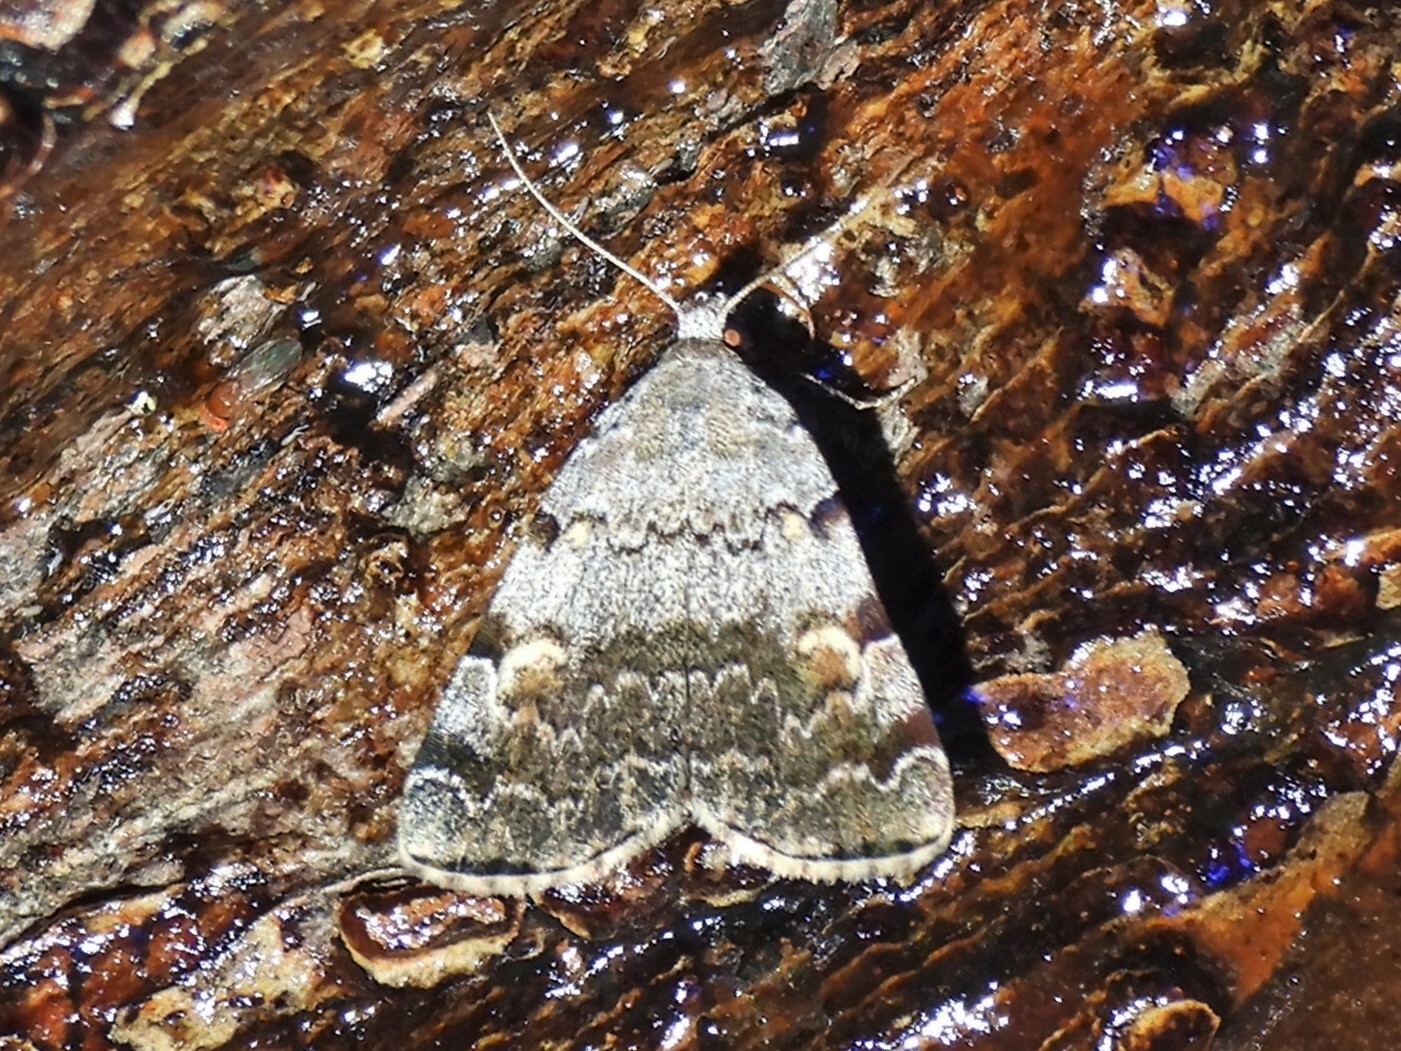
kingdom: Animalia
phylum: Arthropoda
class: Insecta
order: Lepidoptera
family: Erebidae
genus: Idia
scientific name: Idia americalis
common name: American idia moth
